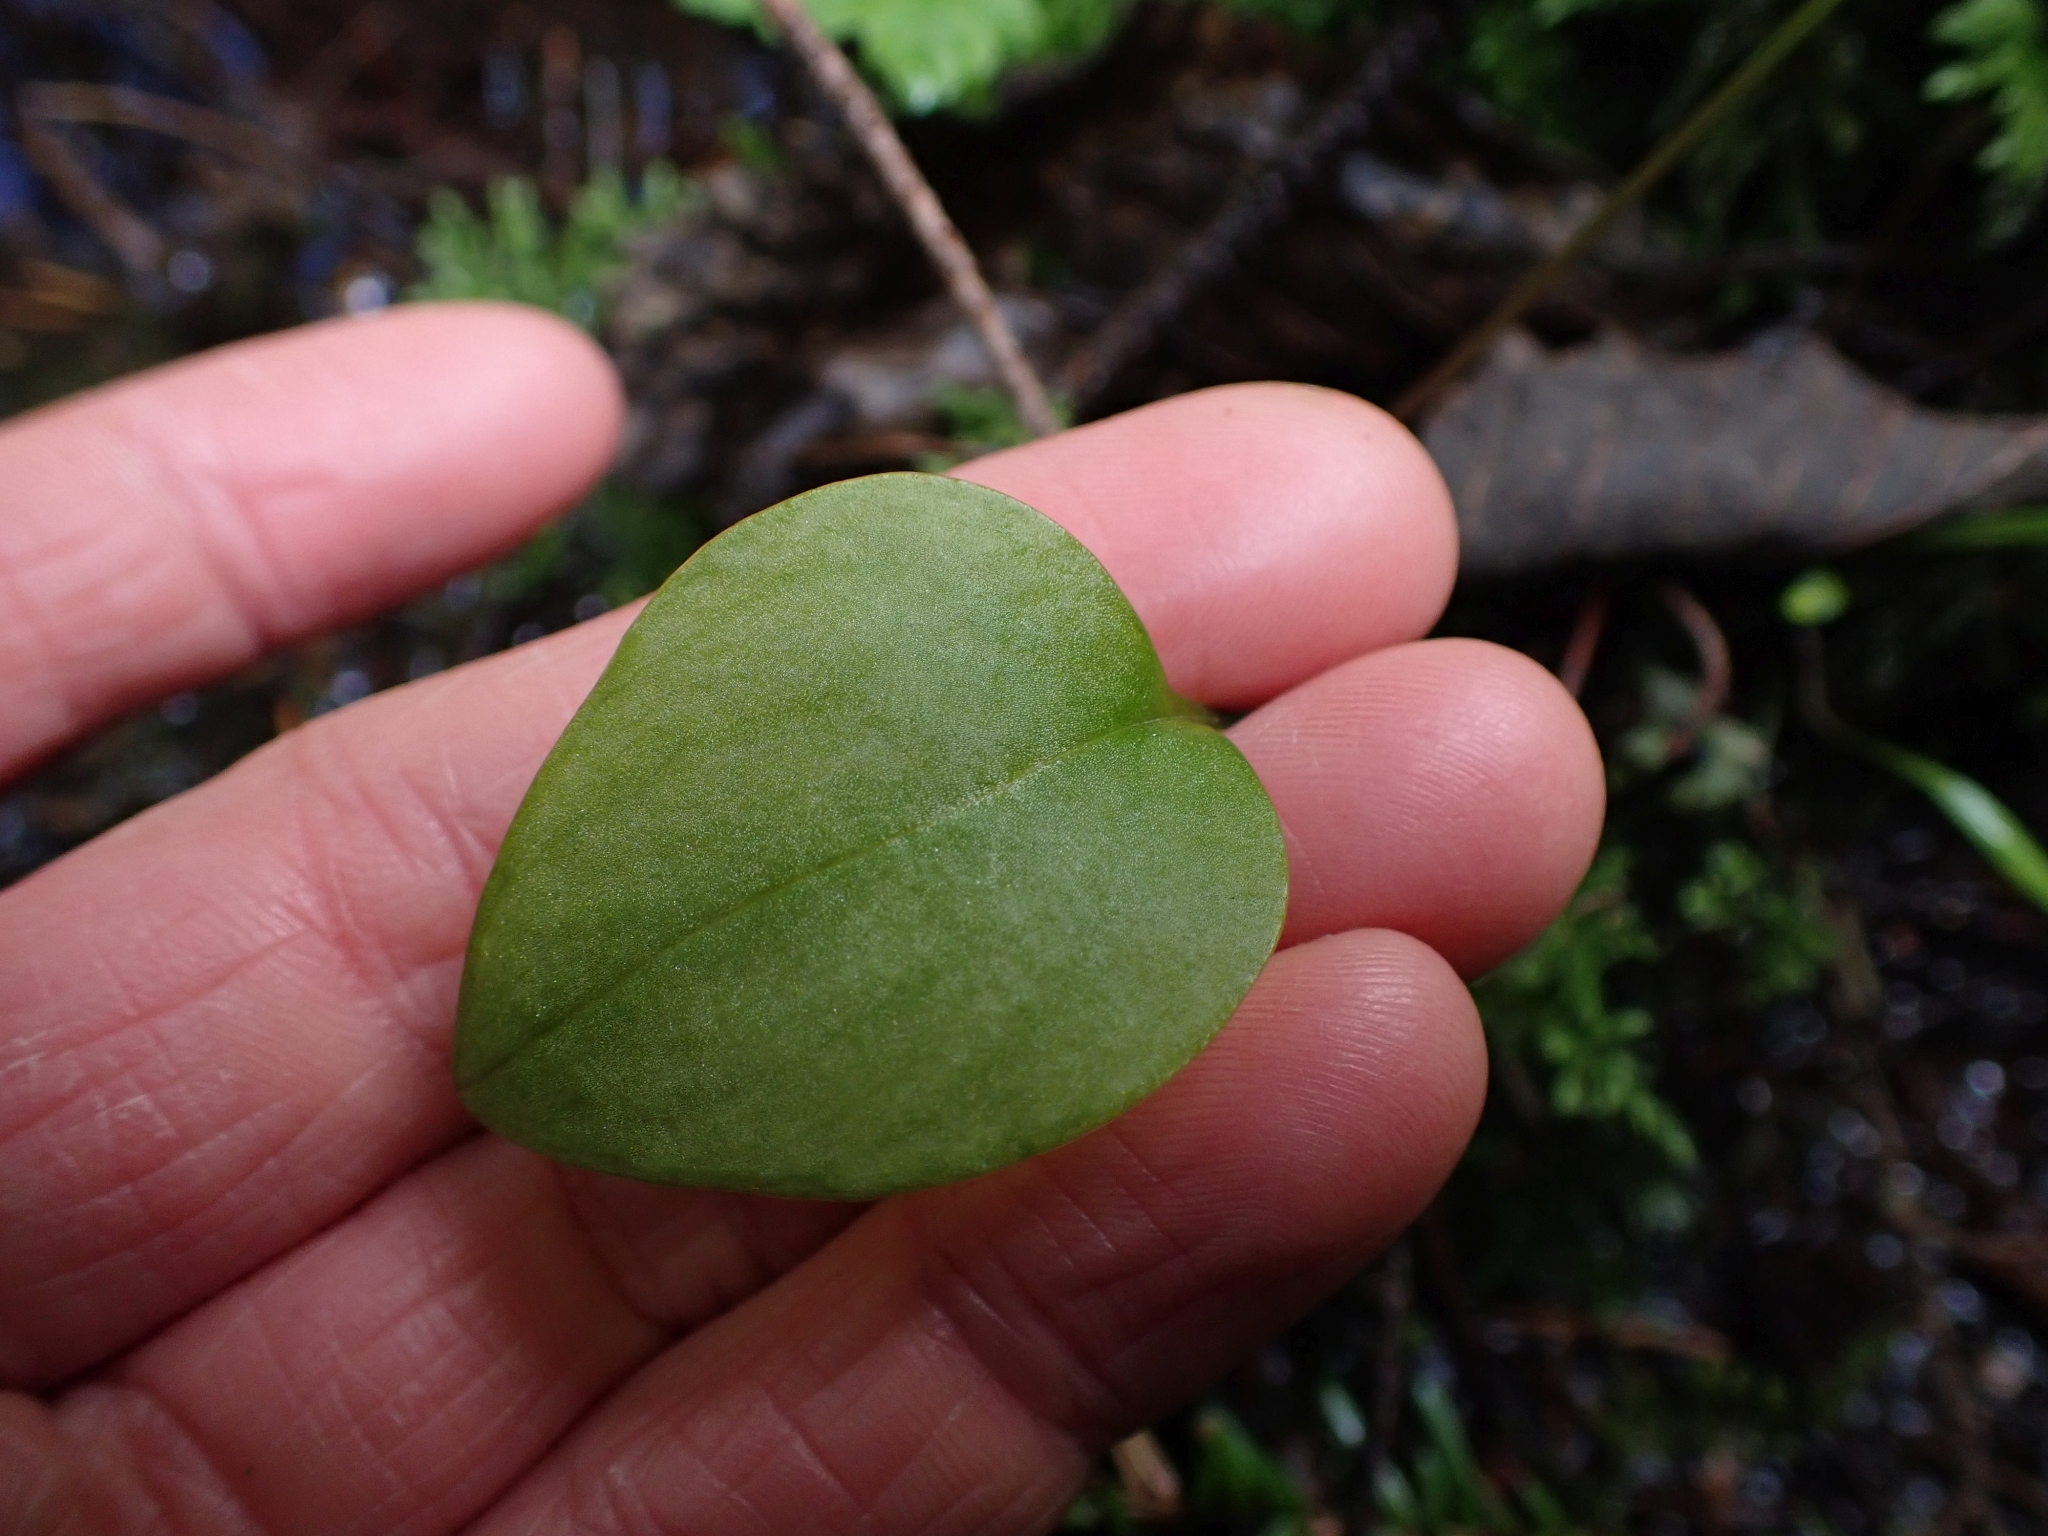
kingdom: Plantae
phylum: Tracheophyta
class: Magnoliopsida
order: Caryophyllales
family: Montiaceae
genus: Claytonia
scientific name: Claytonia sibirica
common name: Pink purslane
